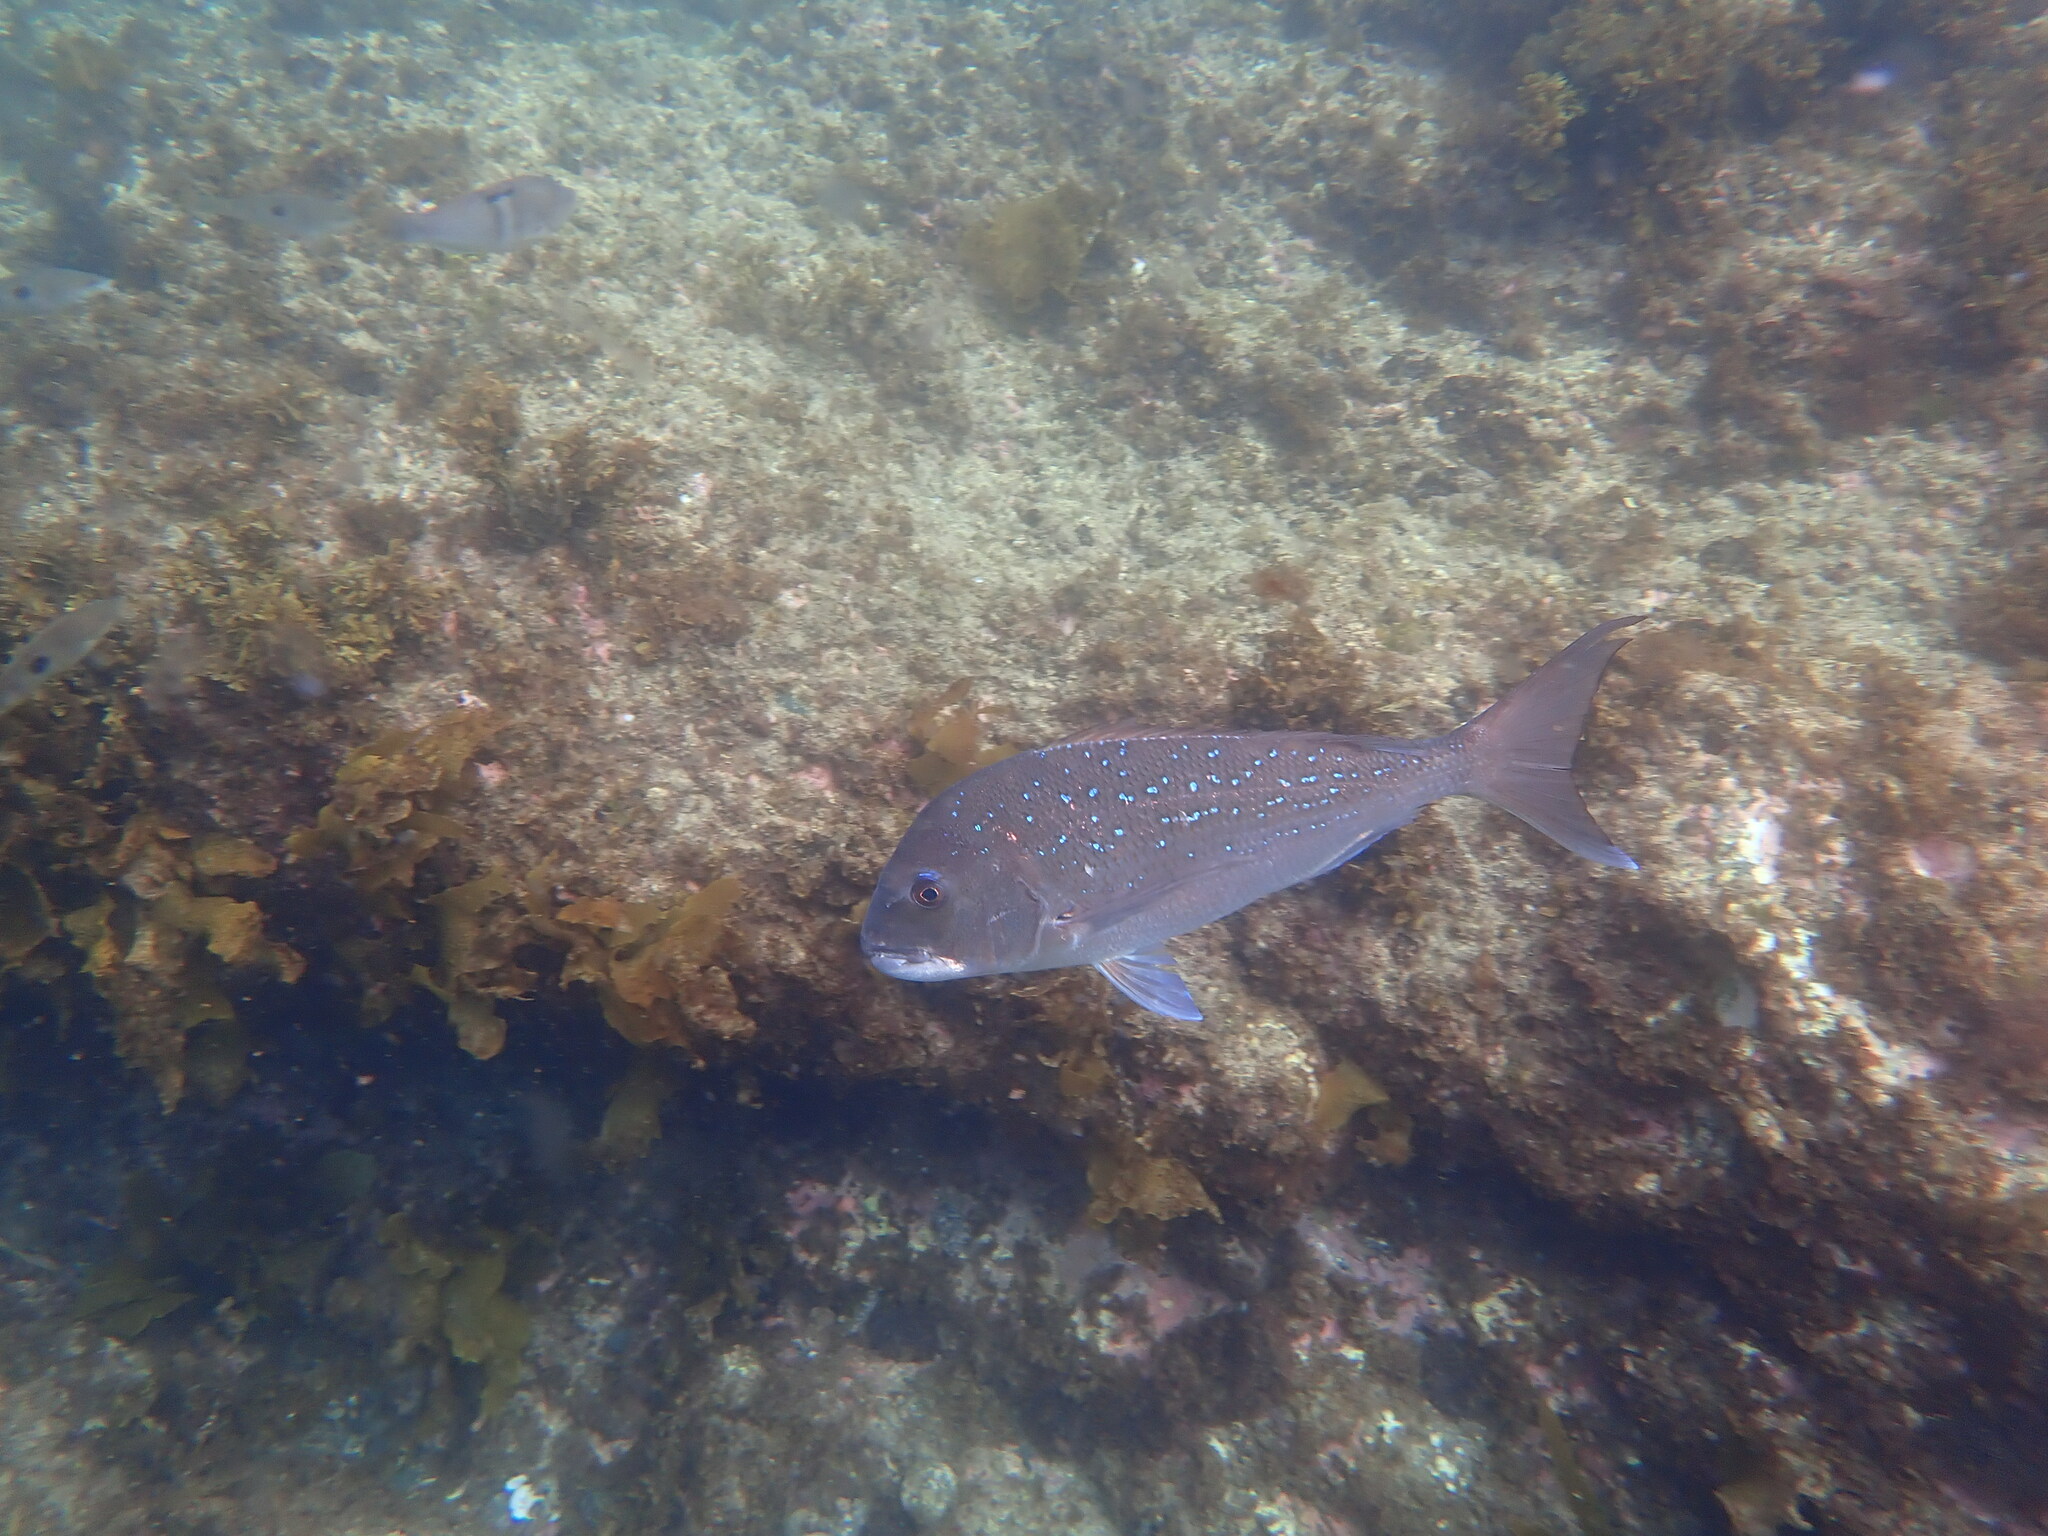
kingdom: Animalia
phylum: Chordata
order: Perciformes
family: Sparidae
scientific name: Sparidae
